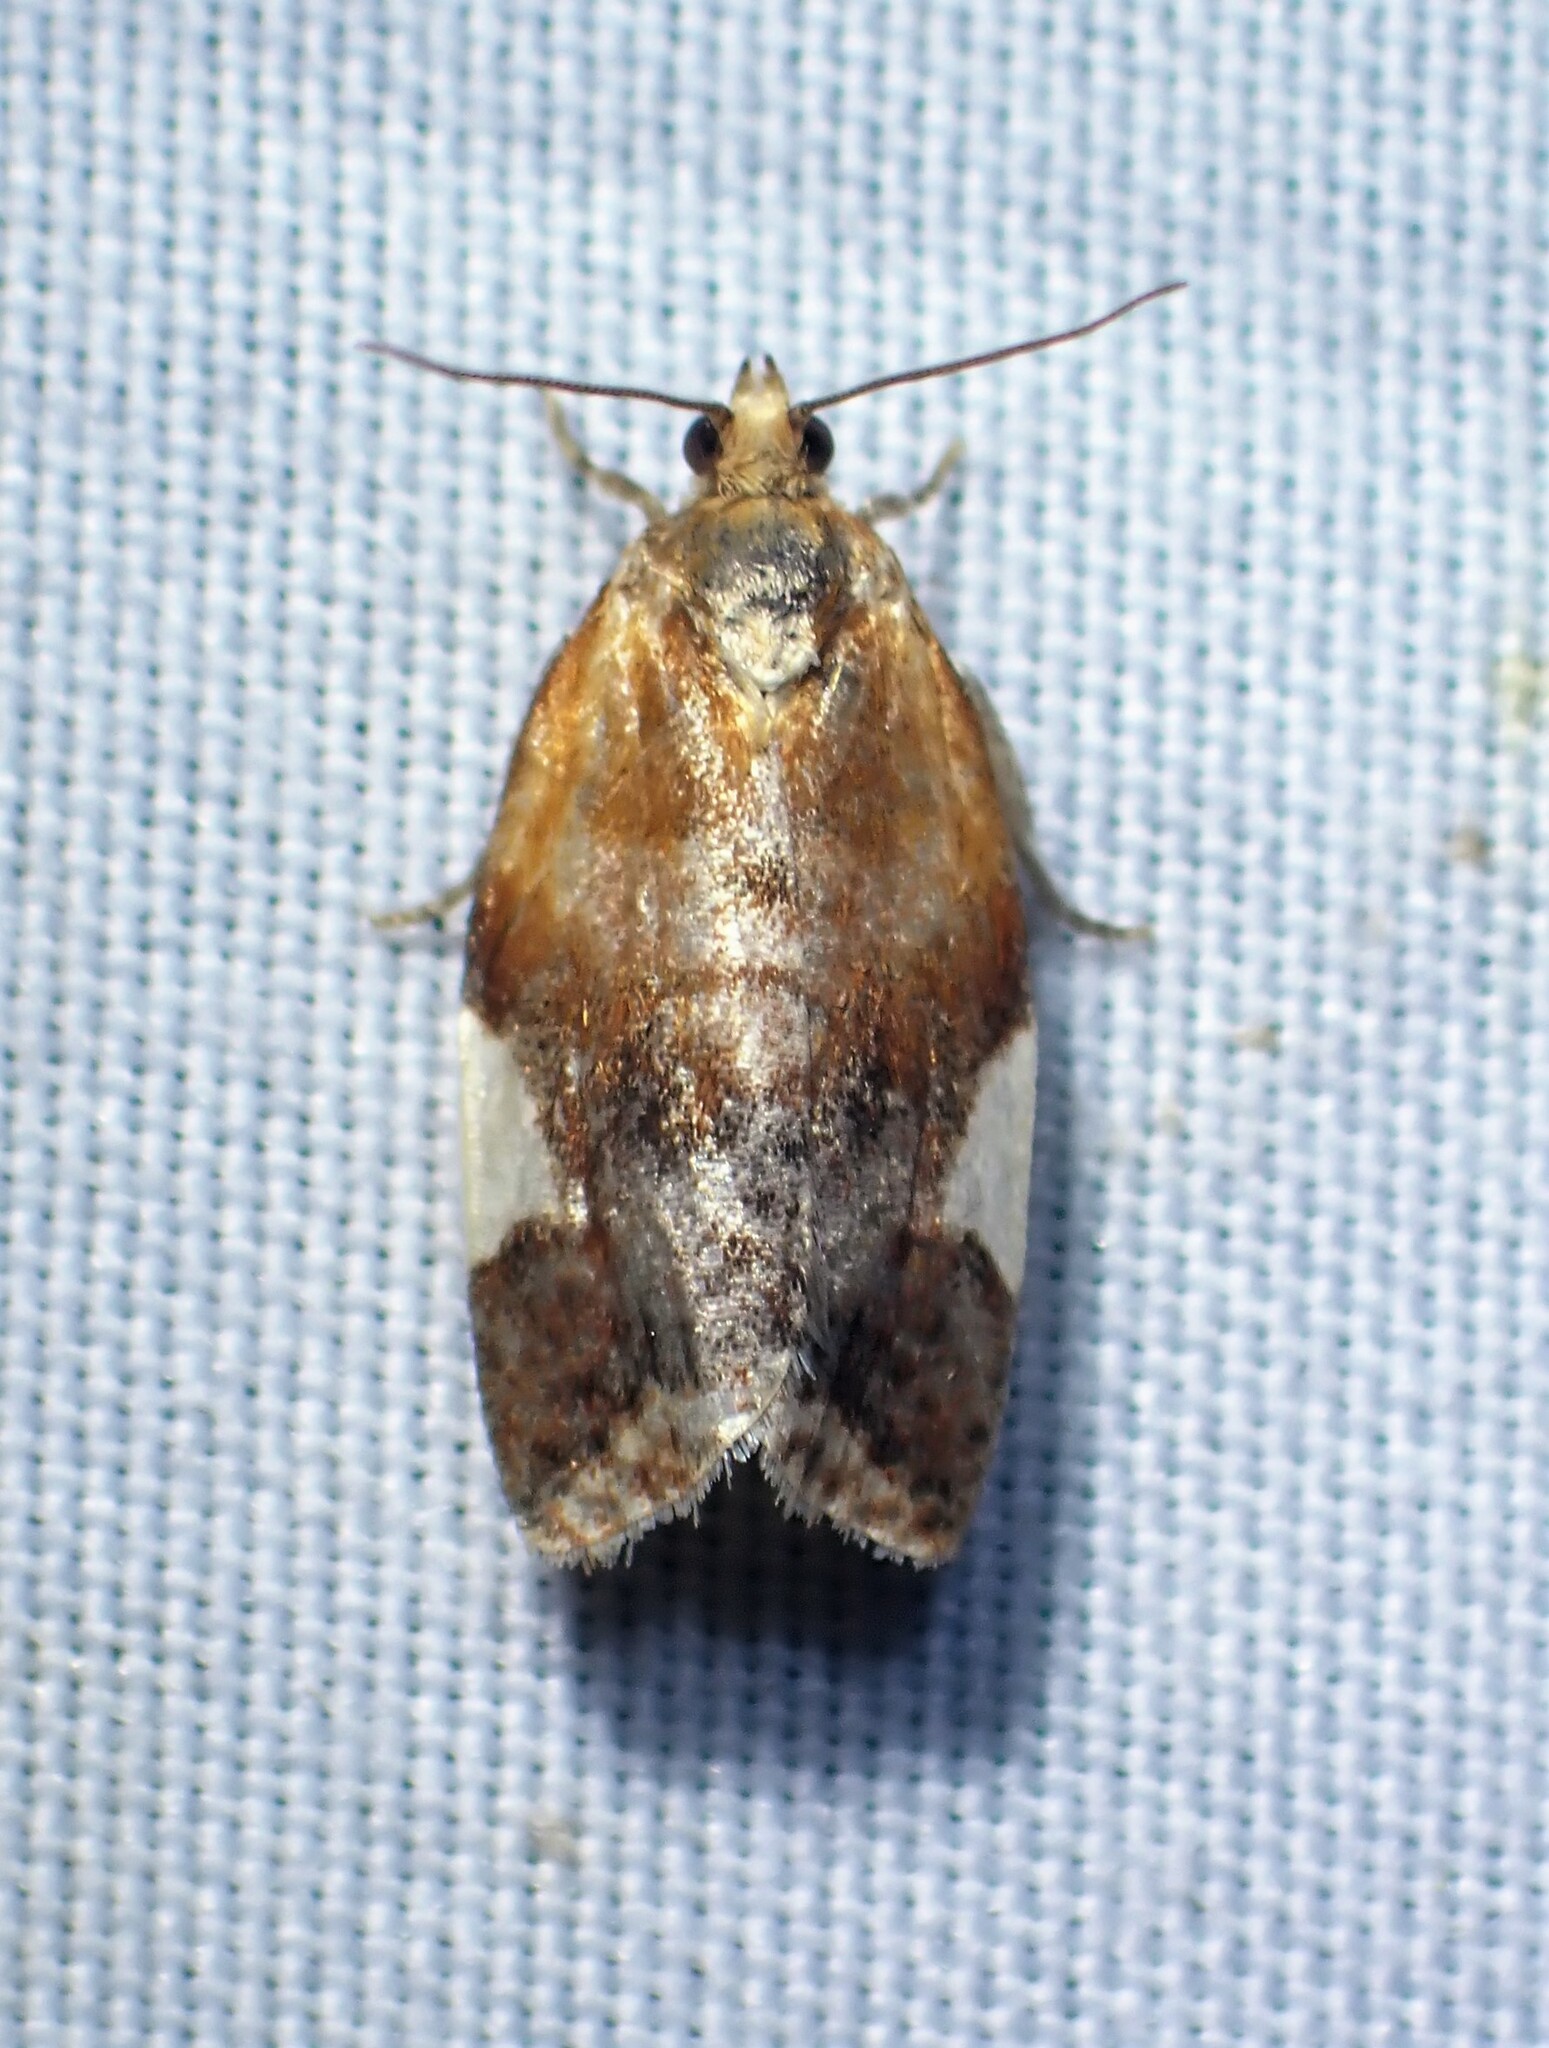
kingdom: Animalia
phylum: Arthropoda
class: Insecta
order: Lepidoptera
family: Tortricidae
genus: Clepsis
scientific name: Clepsis persicana
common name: White triangle tortrix
